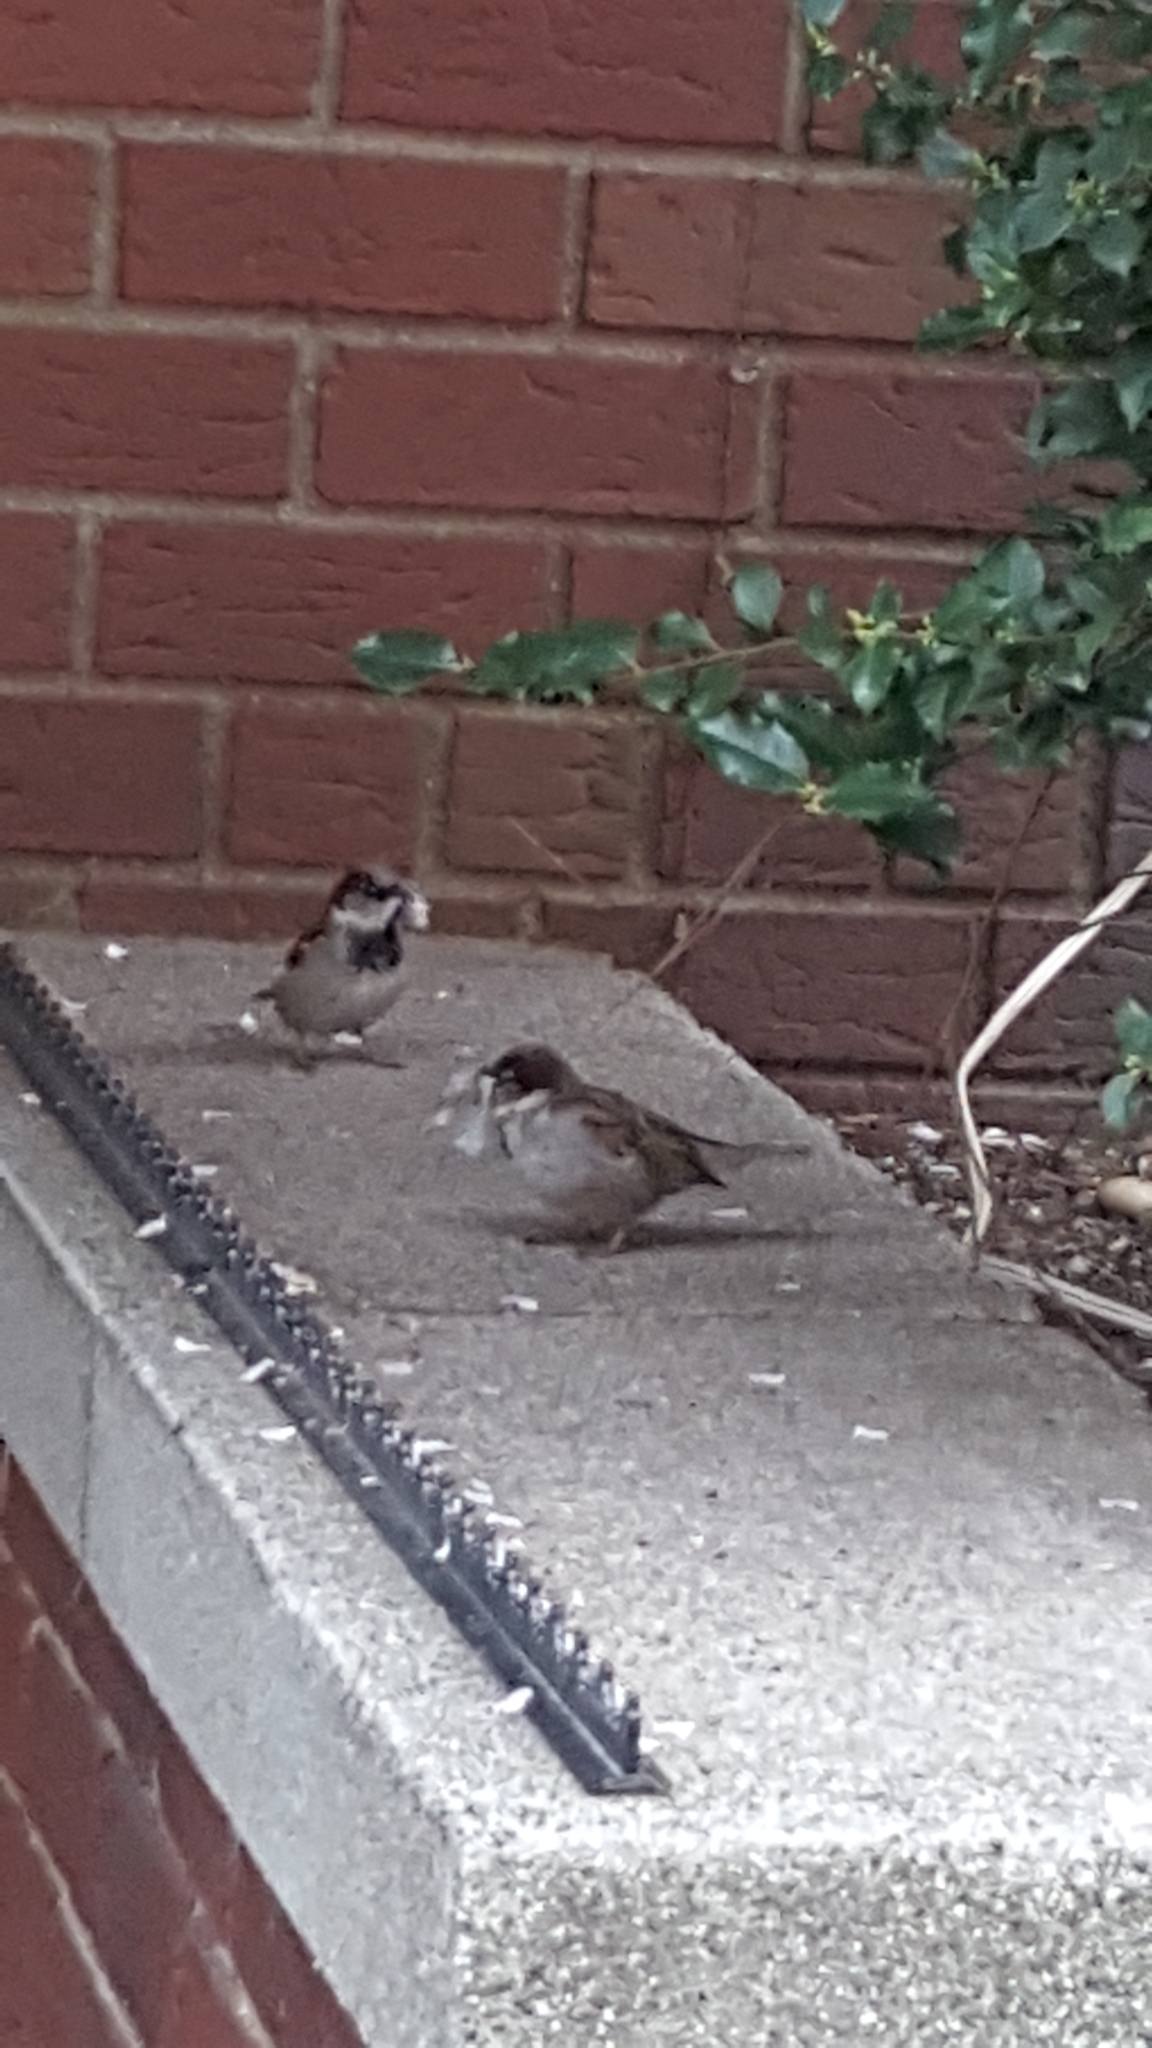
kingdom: Animalia
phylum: Chordata
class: Aves
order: Passeriformes
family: Passeridae
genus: Passer
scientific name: Passer domesticus
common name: House sparrow
